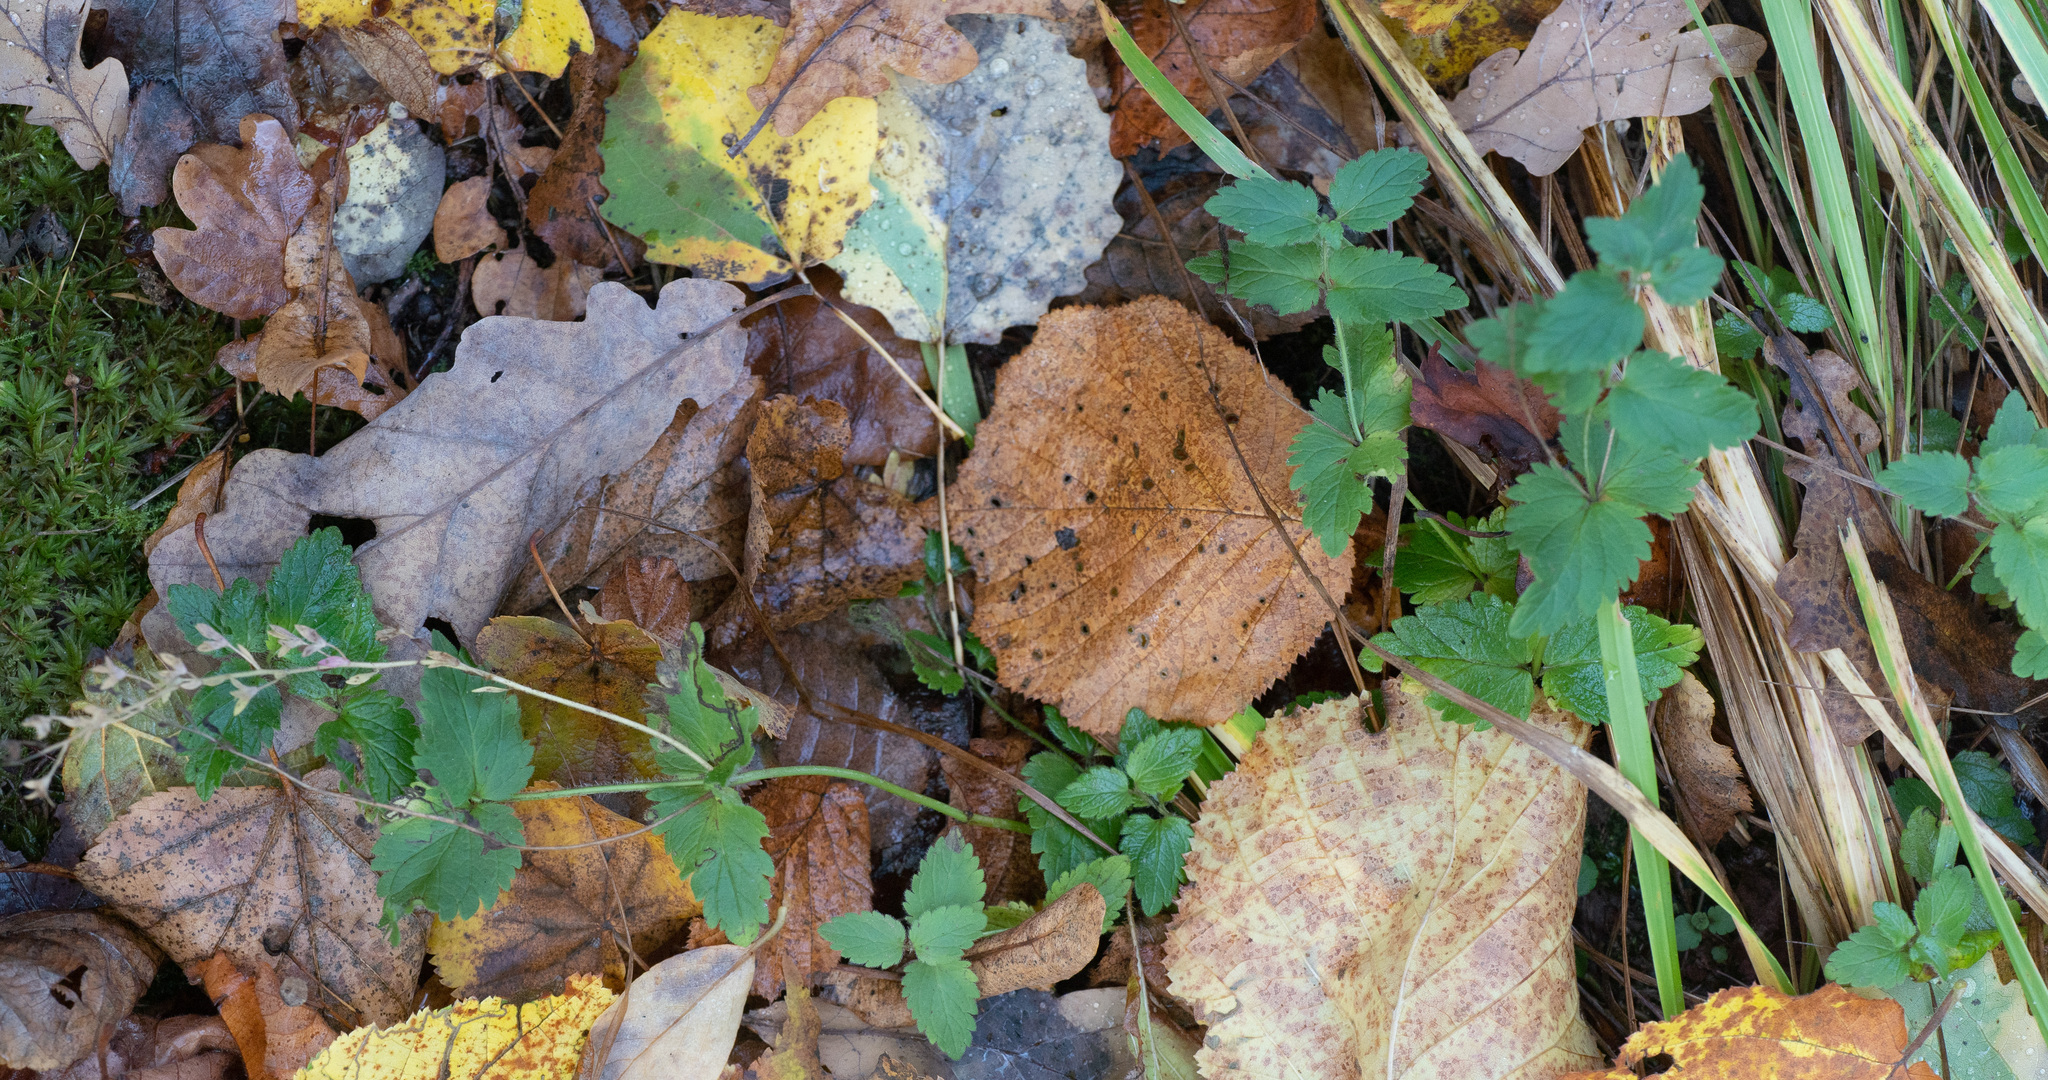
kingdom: Plantae
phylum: Tracheophyta
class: Magnoliopsida
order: Lamiales
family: Plantaginaceae
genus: Veronica
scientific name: Veronica chamaedrys
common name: Germander speedwell
